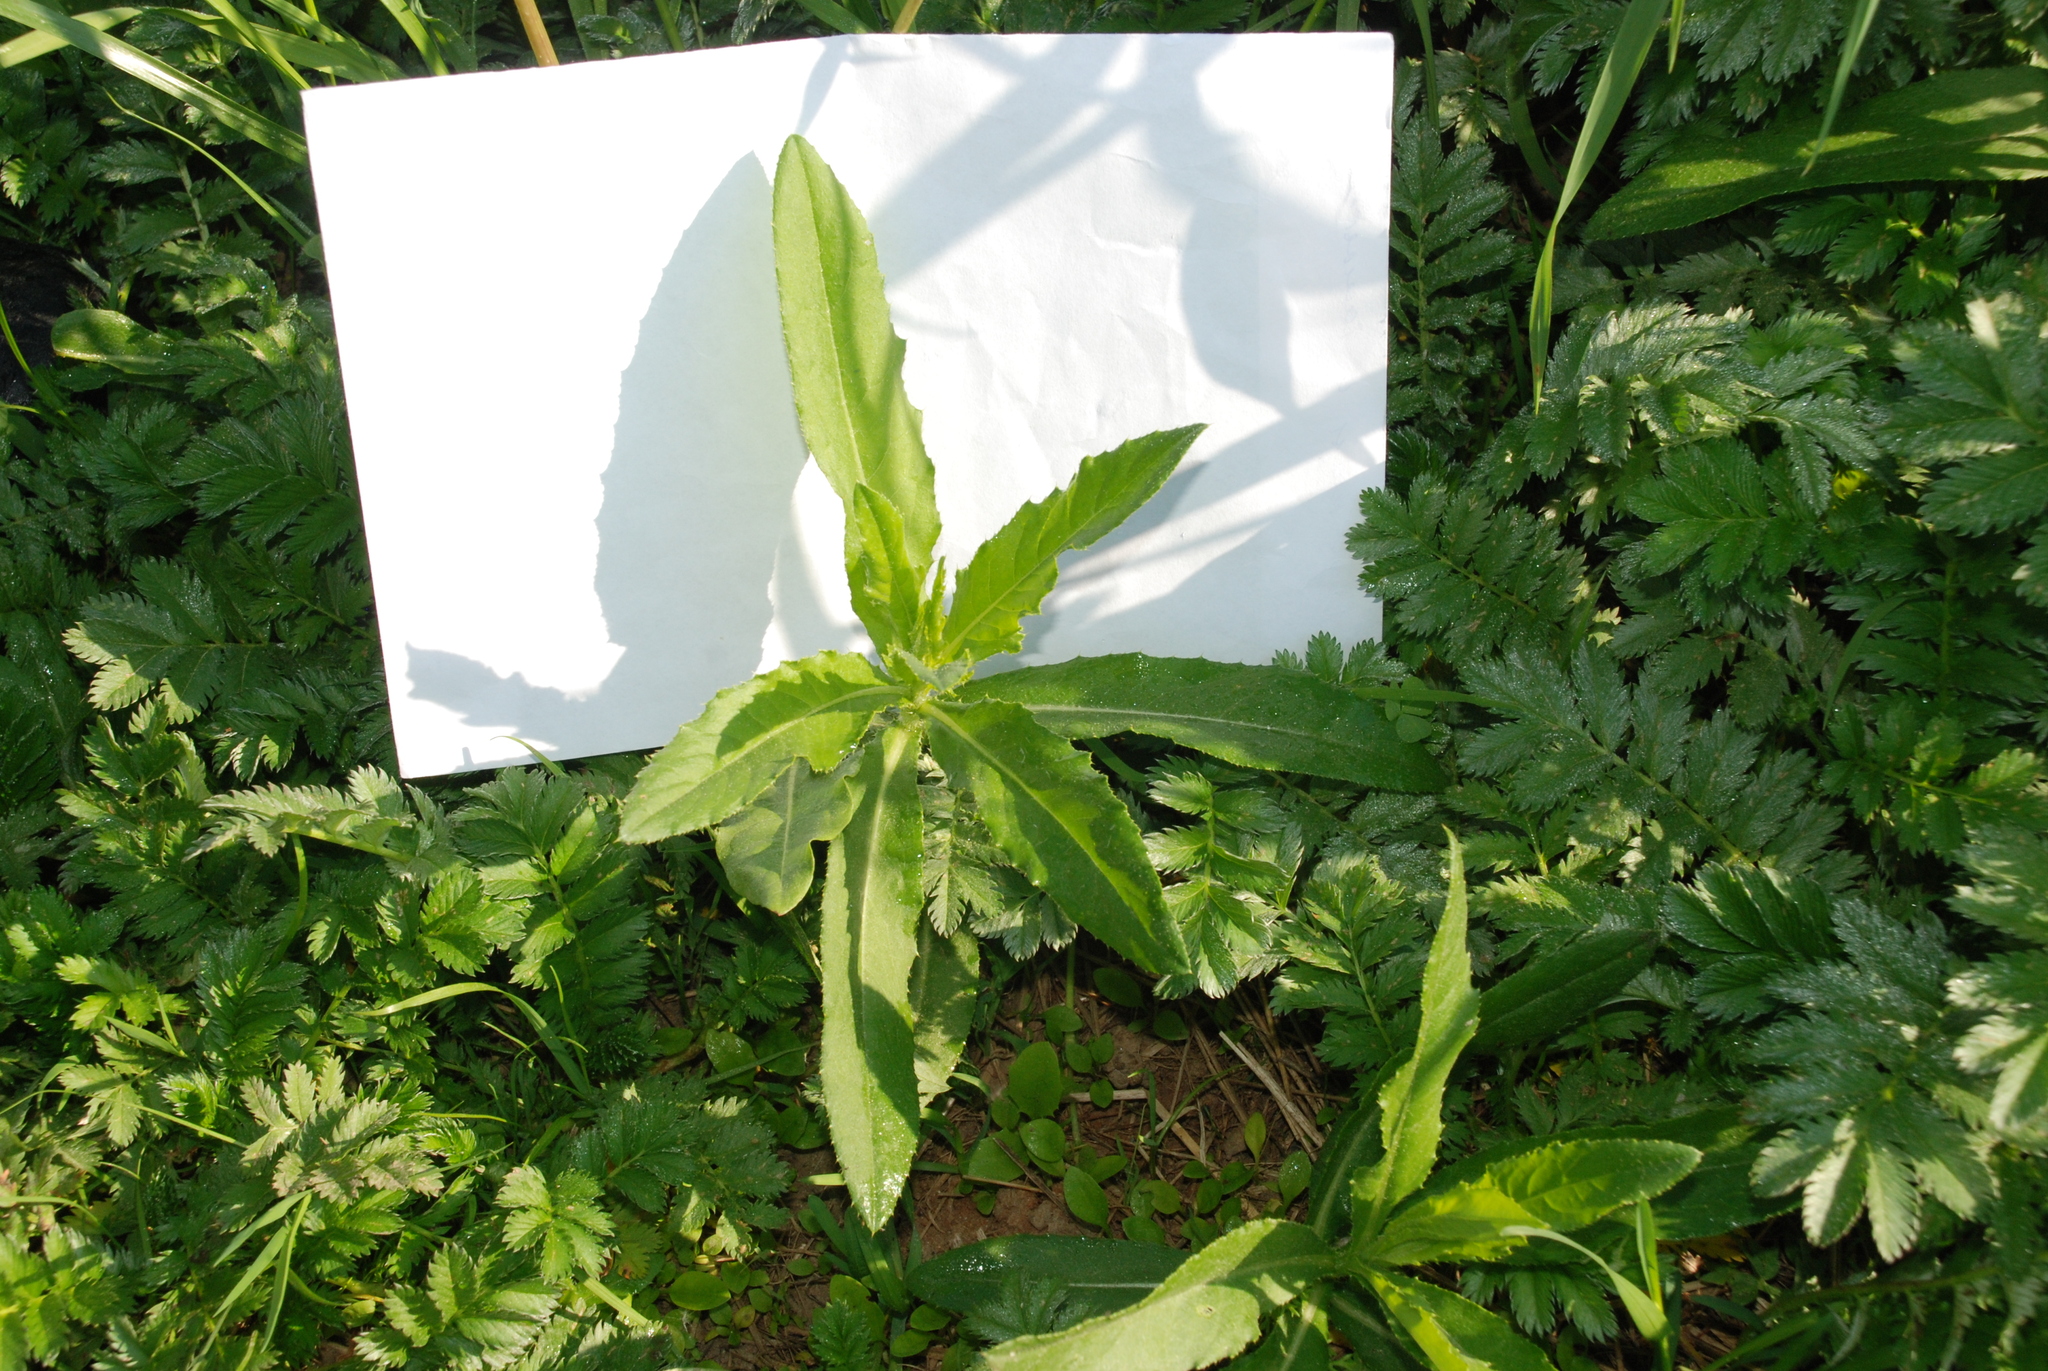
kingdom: Plantae
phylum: Tracheophyta
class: Magnoliopsida
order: Asterales
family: Asteraceae
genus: Cirsium
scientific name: Cirsium arvense
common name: Creeping thistle
